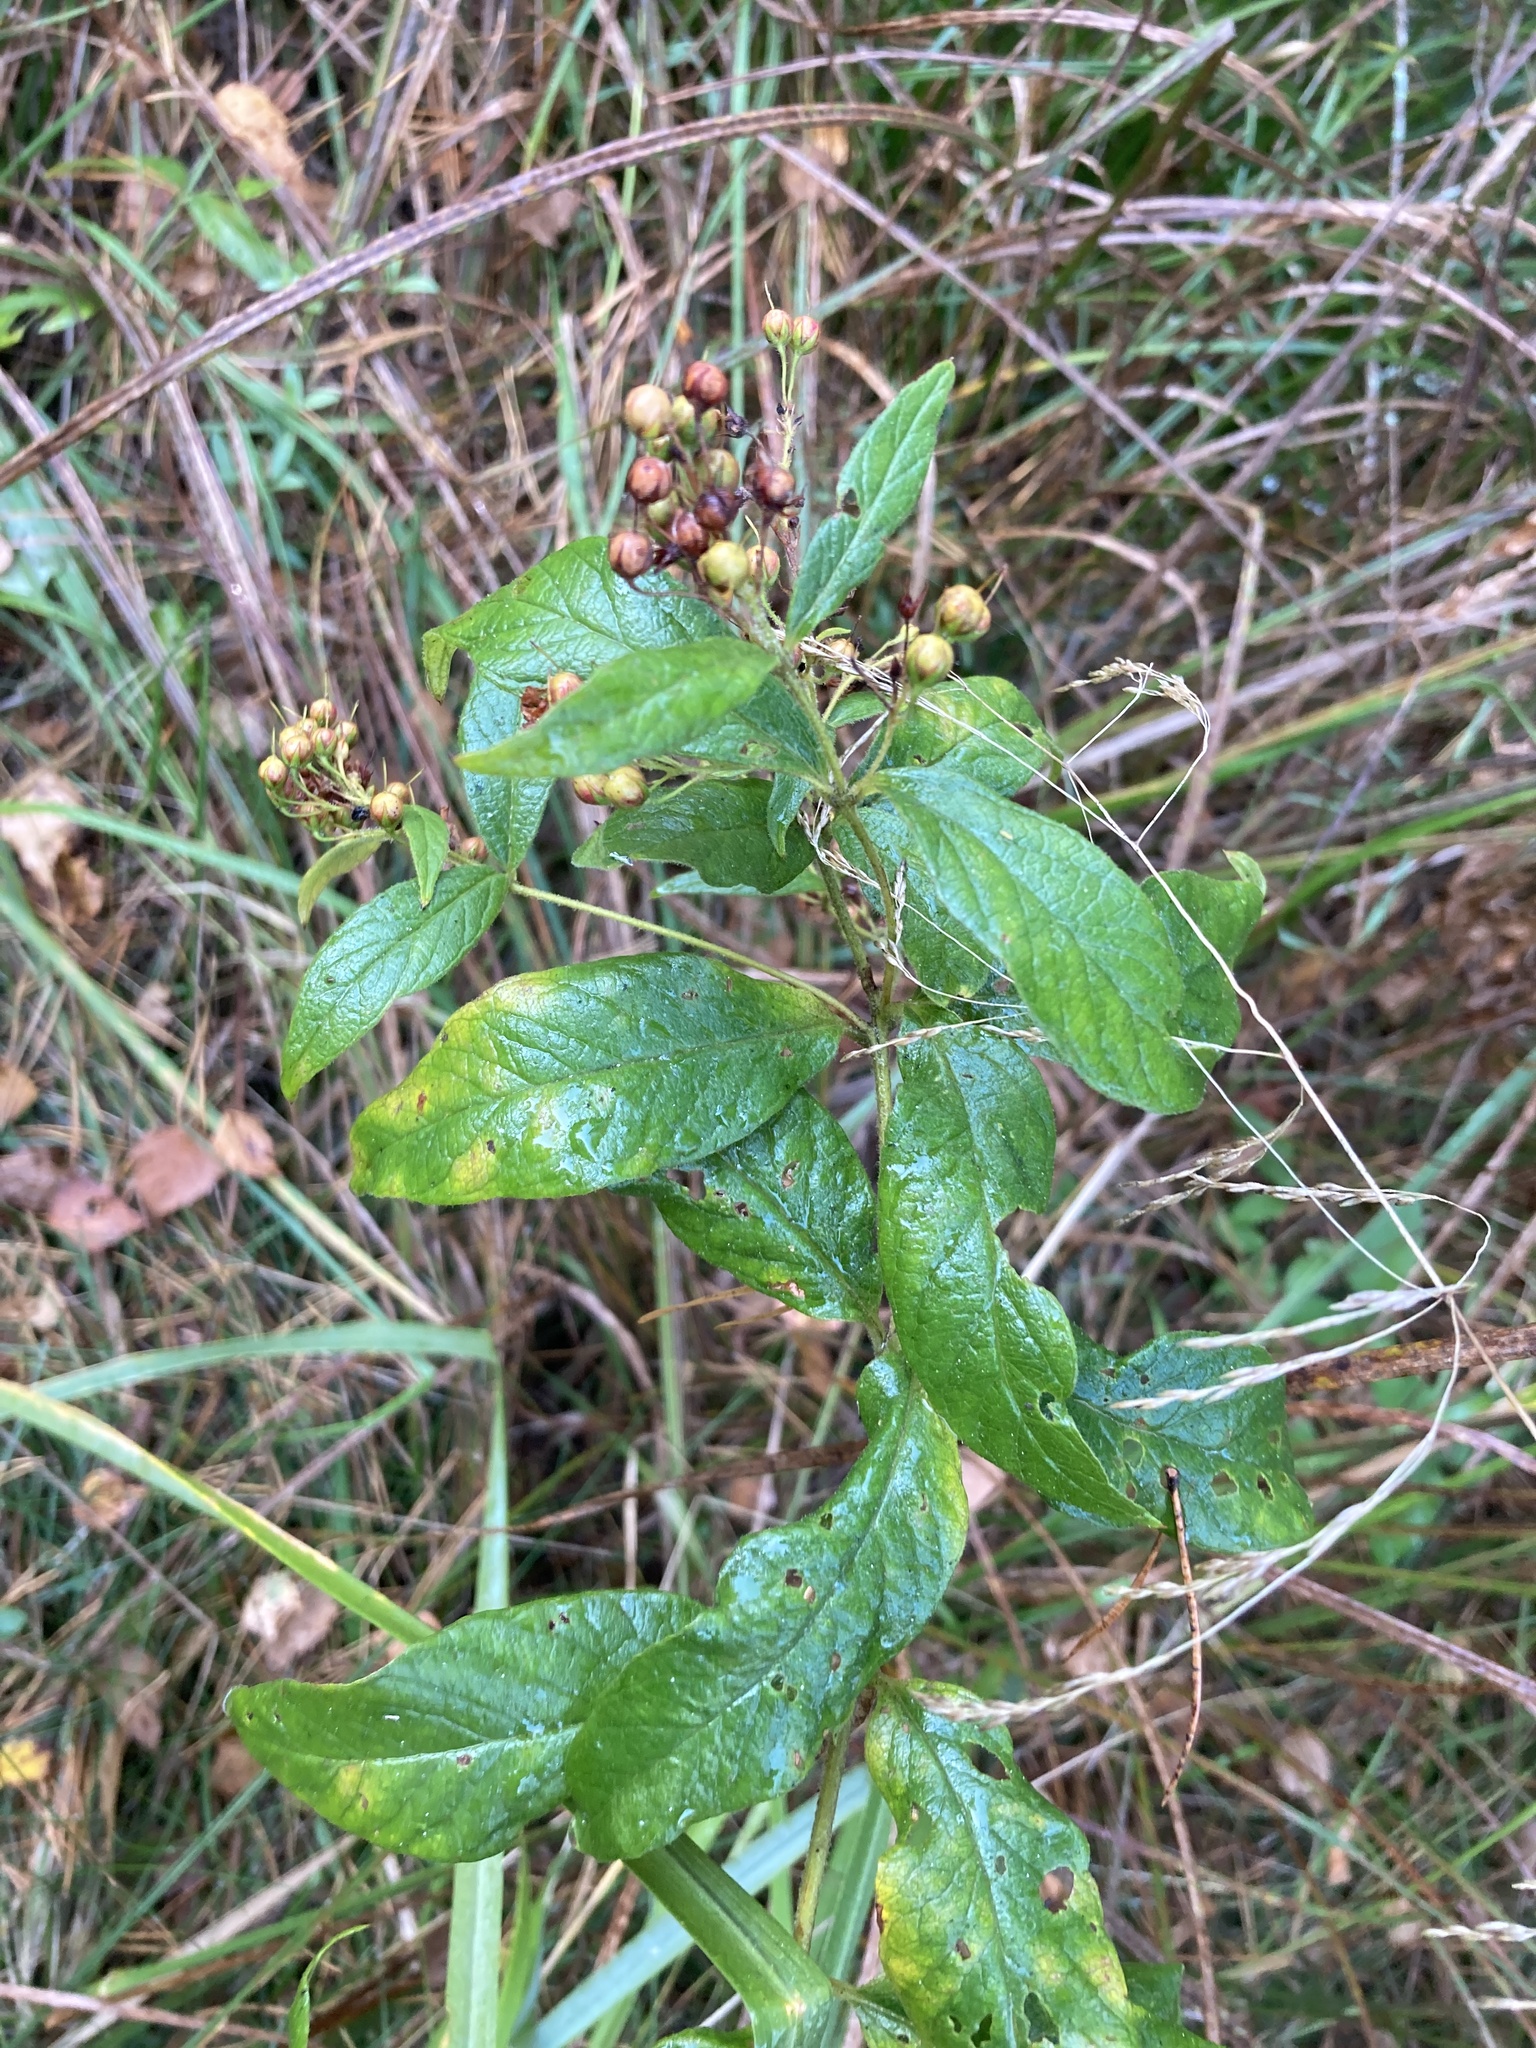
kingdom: Plantae
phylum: Tracheophyta
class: Magnoliopsida
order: Ericales
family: Primulaceae
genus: Lysimachia
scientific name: Lysimachia vulgaris
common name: Yellow loosestrife
